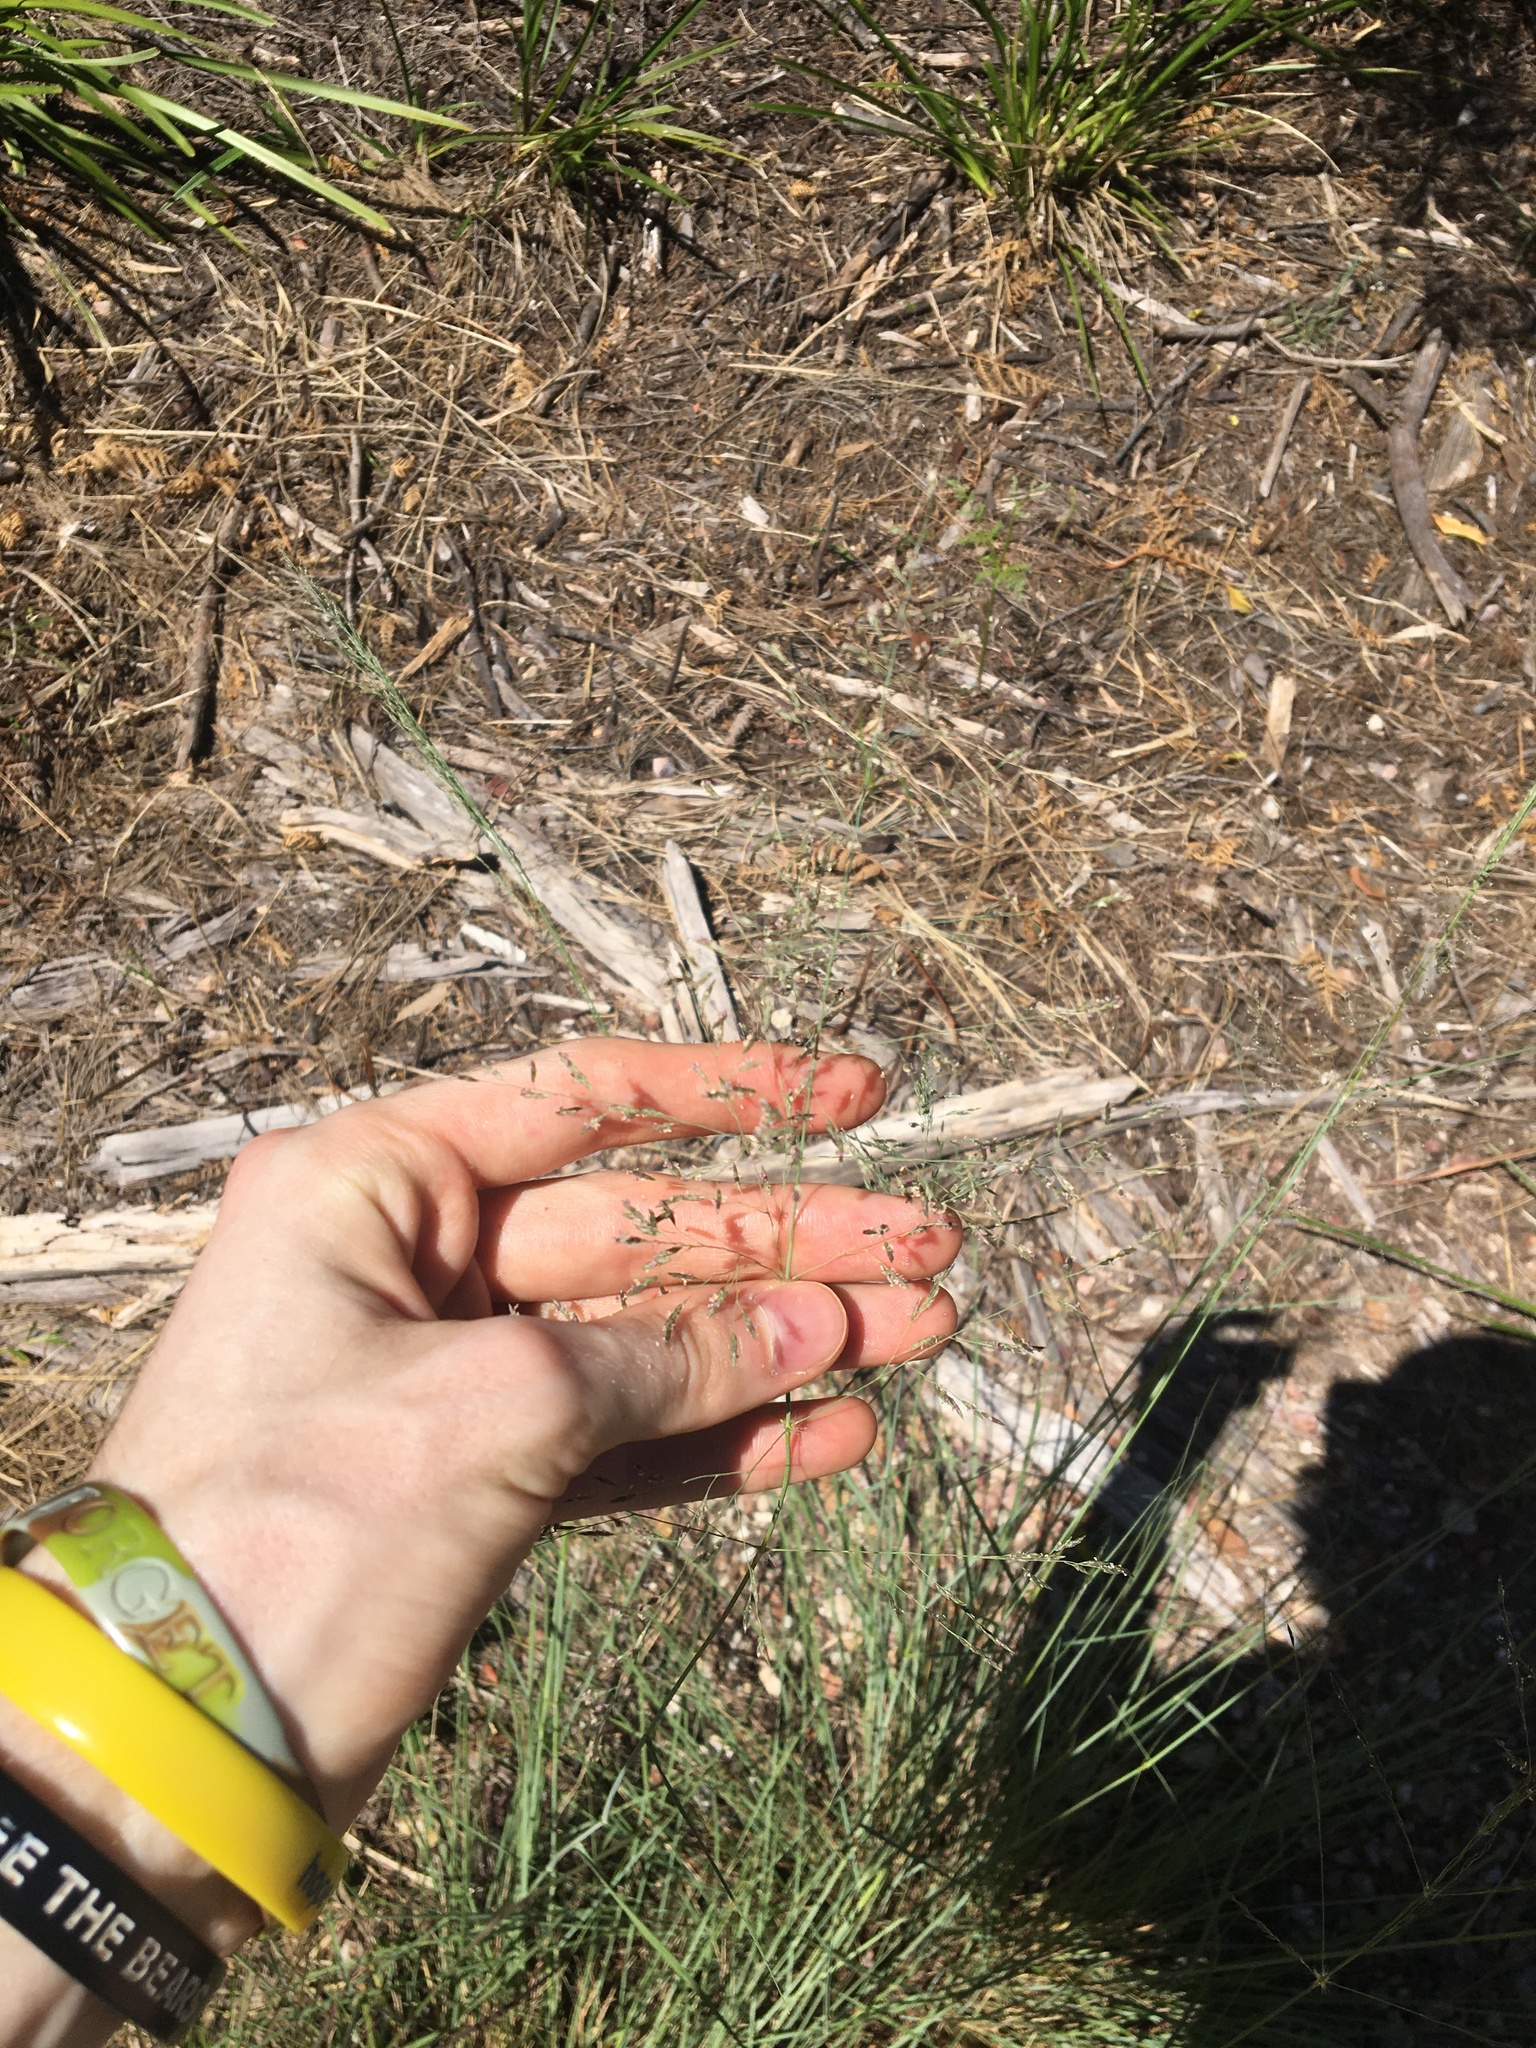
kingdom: Plantae
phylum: Tracheophyta
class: Liliopsida
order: Poales
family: Poaceae
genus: Eragrostis
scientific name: Eragrostis curvula
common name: African love-grass
